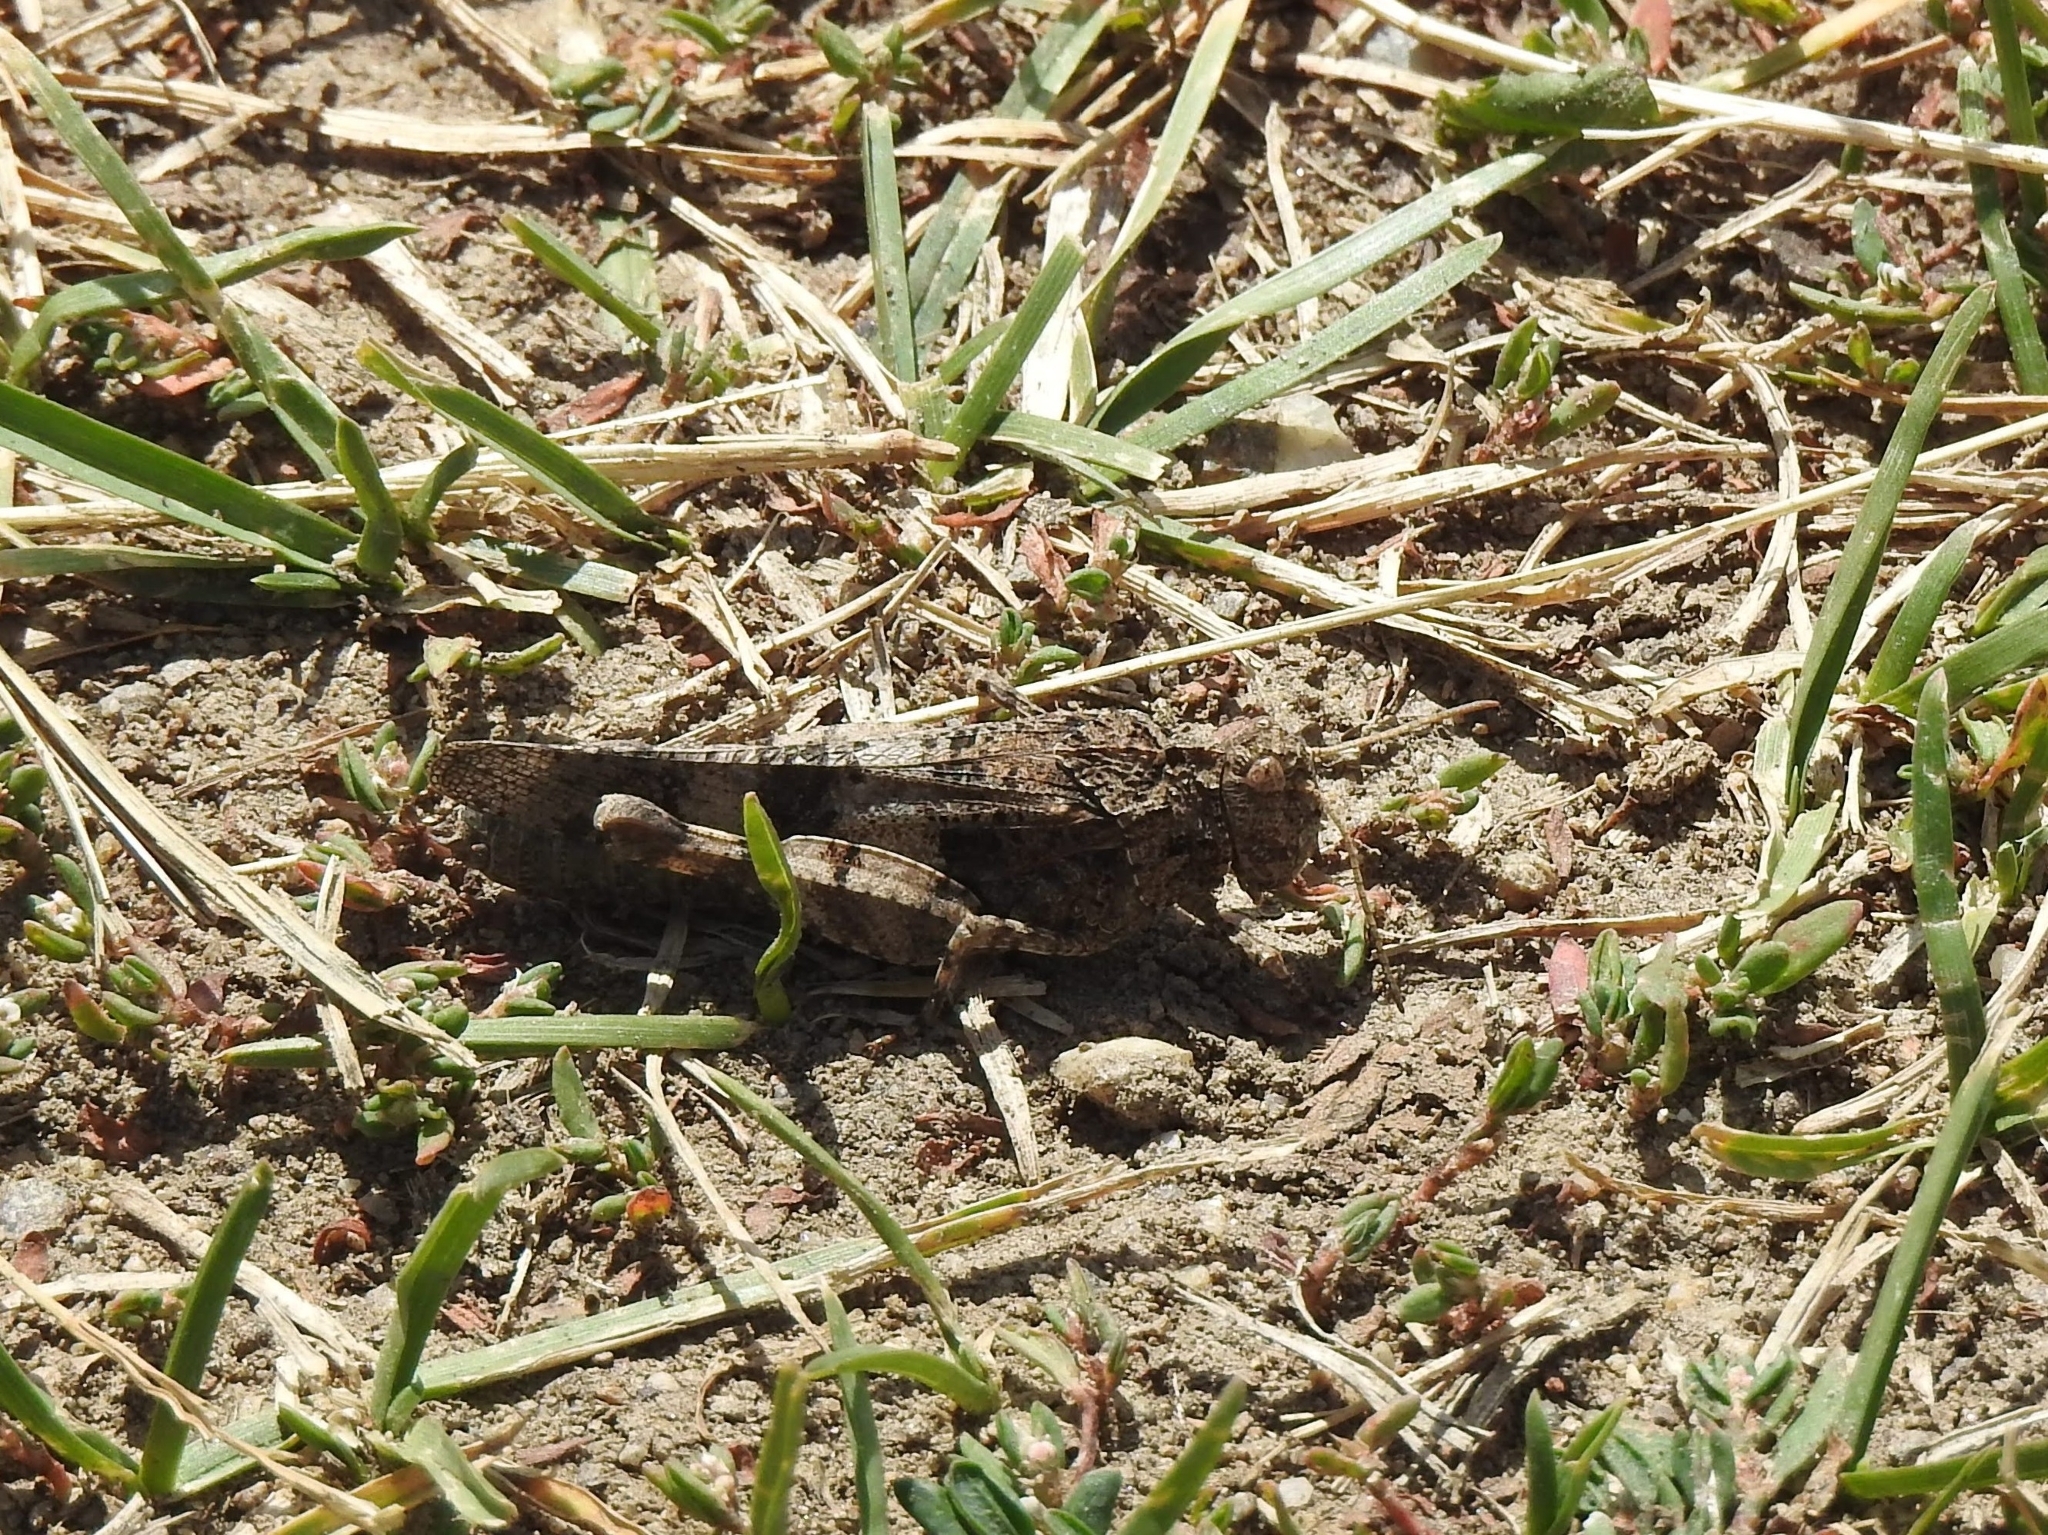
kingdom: Animalia
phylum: Arthropoda
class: Insecta
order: Orthoptera
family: Acrididae
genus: Oedipoda
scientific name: Oedipoda caerulescens
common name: Blue-winged grasshopper
